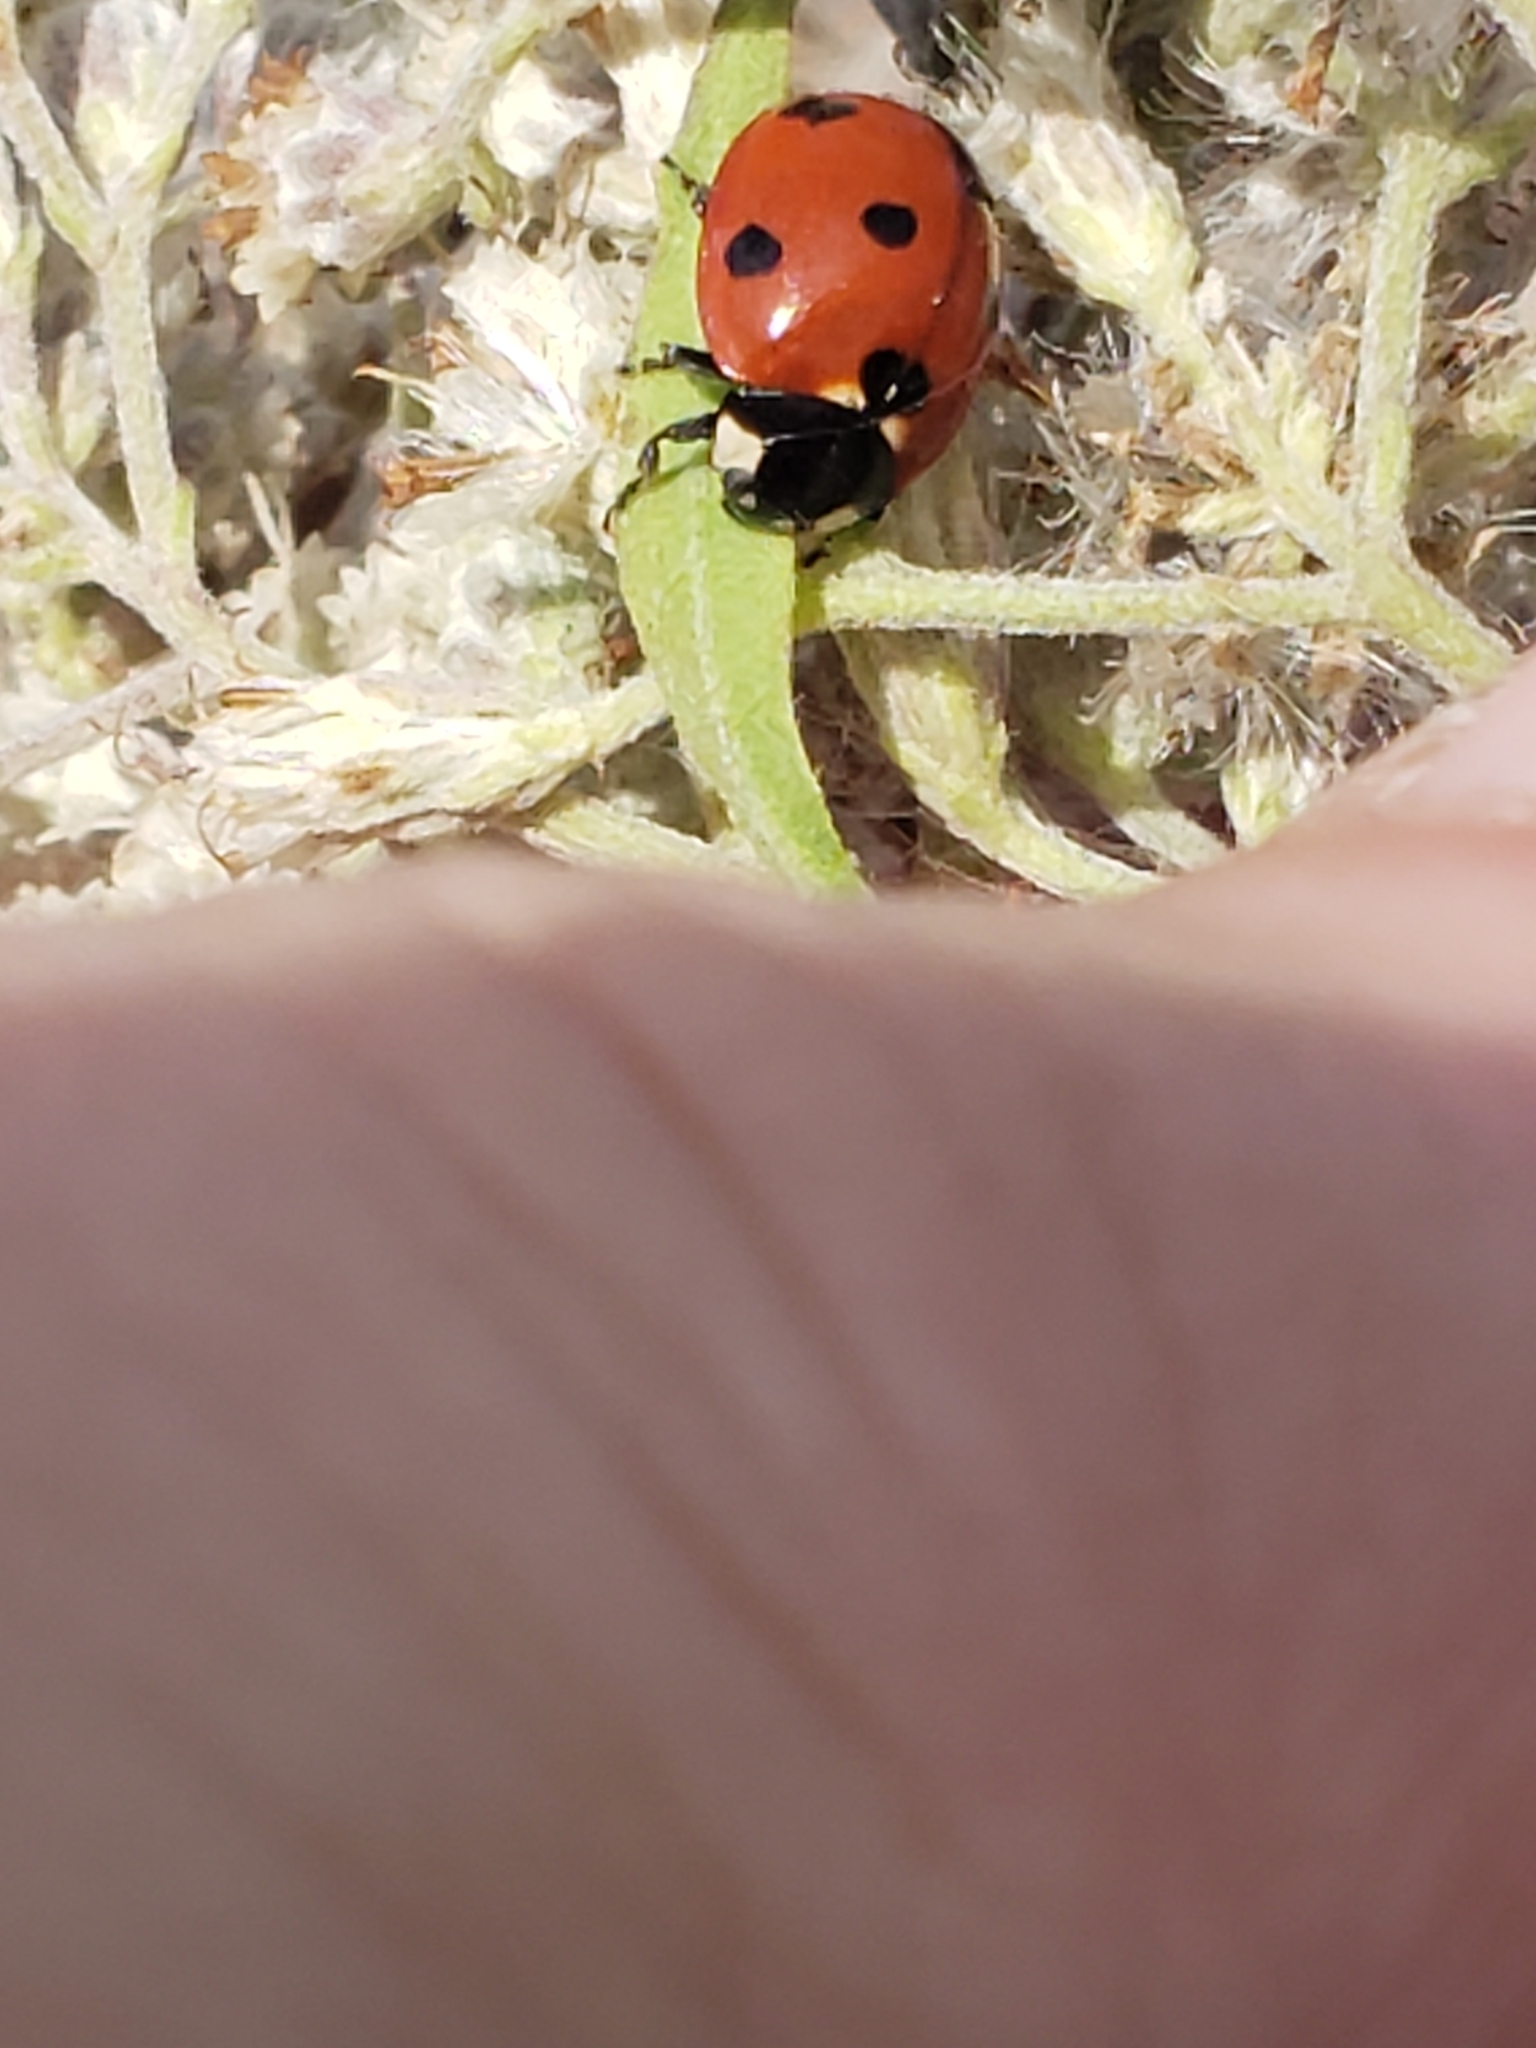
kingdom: Animalia
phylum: Arthropoda
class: Insecta
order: Coleoptera
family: Coccinellidae
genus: Coccinella
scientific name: Coccinella septempunctata
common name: Sevenspotted lady beetle
